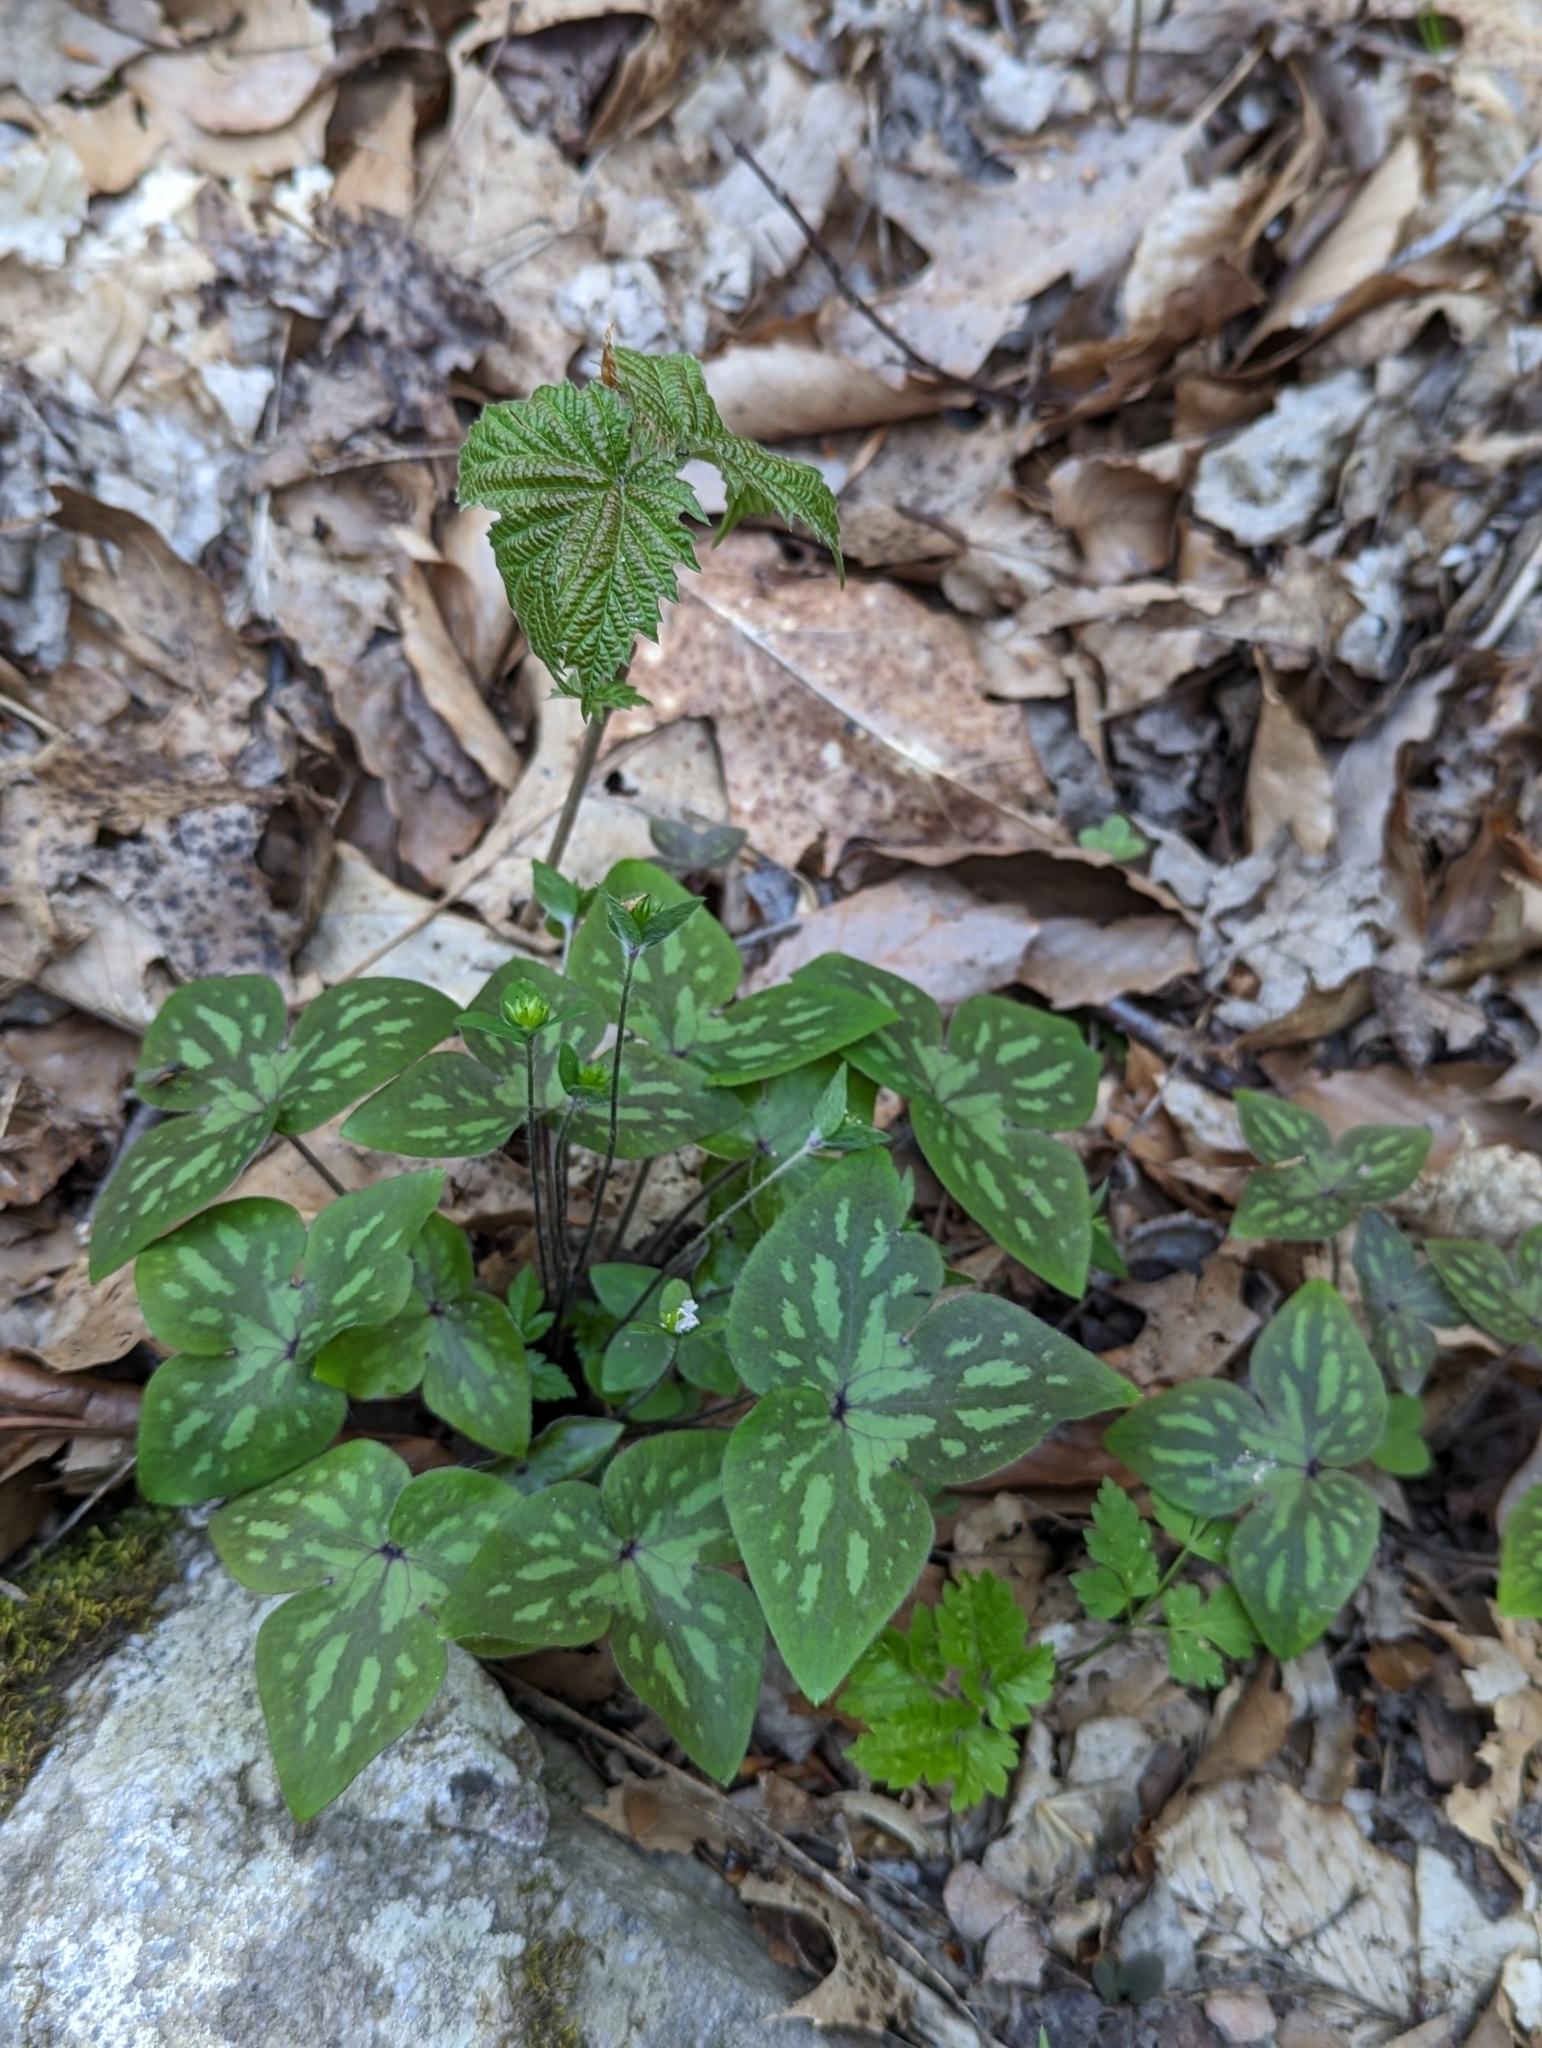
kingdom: Plantae
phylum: Tracheophyta
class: Magnoliopsida
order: Ranunculales
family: Ranunculaceae
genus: Hepatica
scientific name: Hepatica acutiloba
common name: Sharp-lobed hepatica
